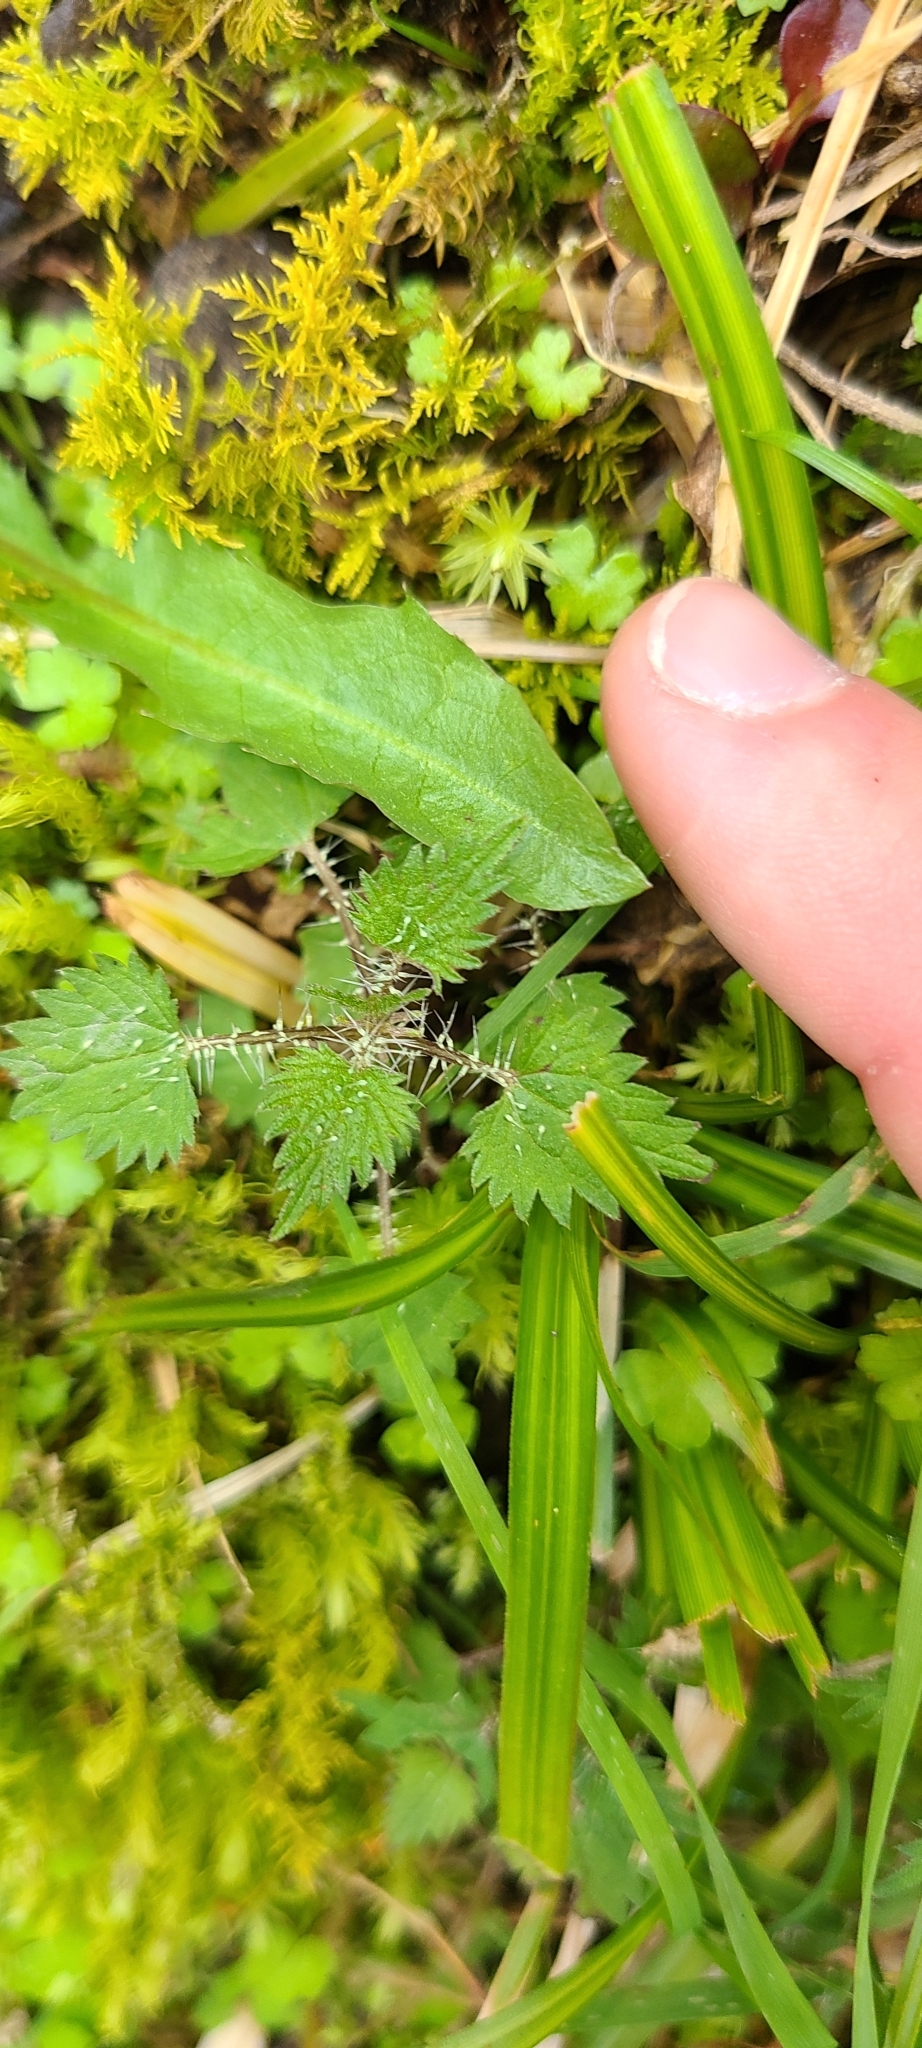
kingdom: Plantae
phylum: Tracheophyta
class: Magnoliopsida
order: Rosales
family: Urticaceae
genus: Urtica
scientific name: Urtica sykesii
